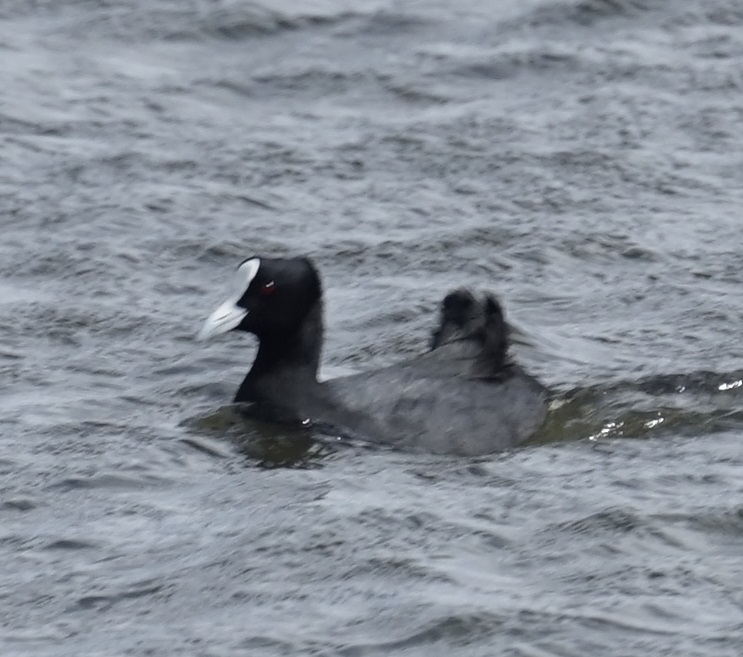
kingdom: Animalia
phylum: Chordata
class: Aves
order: Gruiformes
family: Rallidae
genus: Fulica
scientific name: Fulica atra
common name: Eurasian coot
